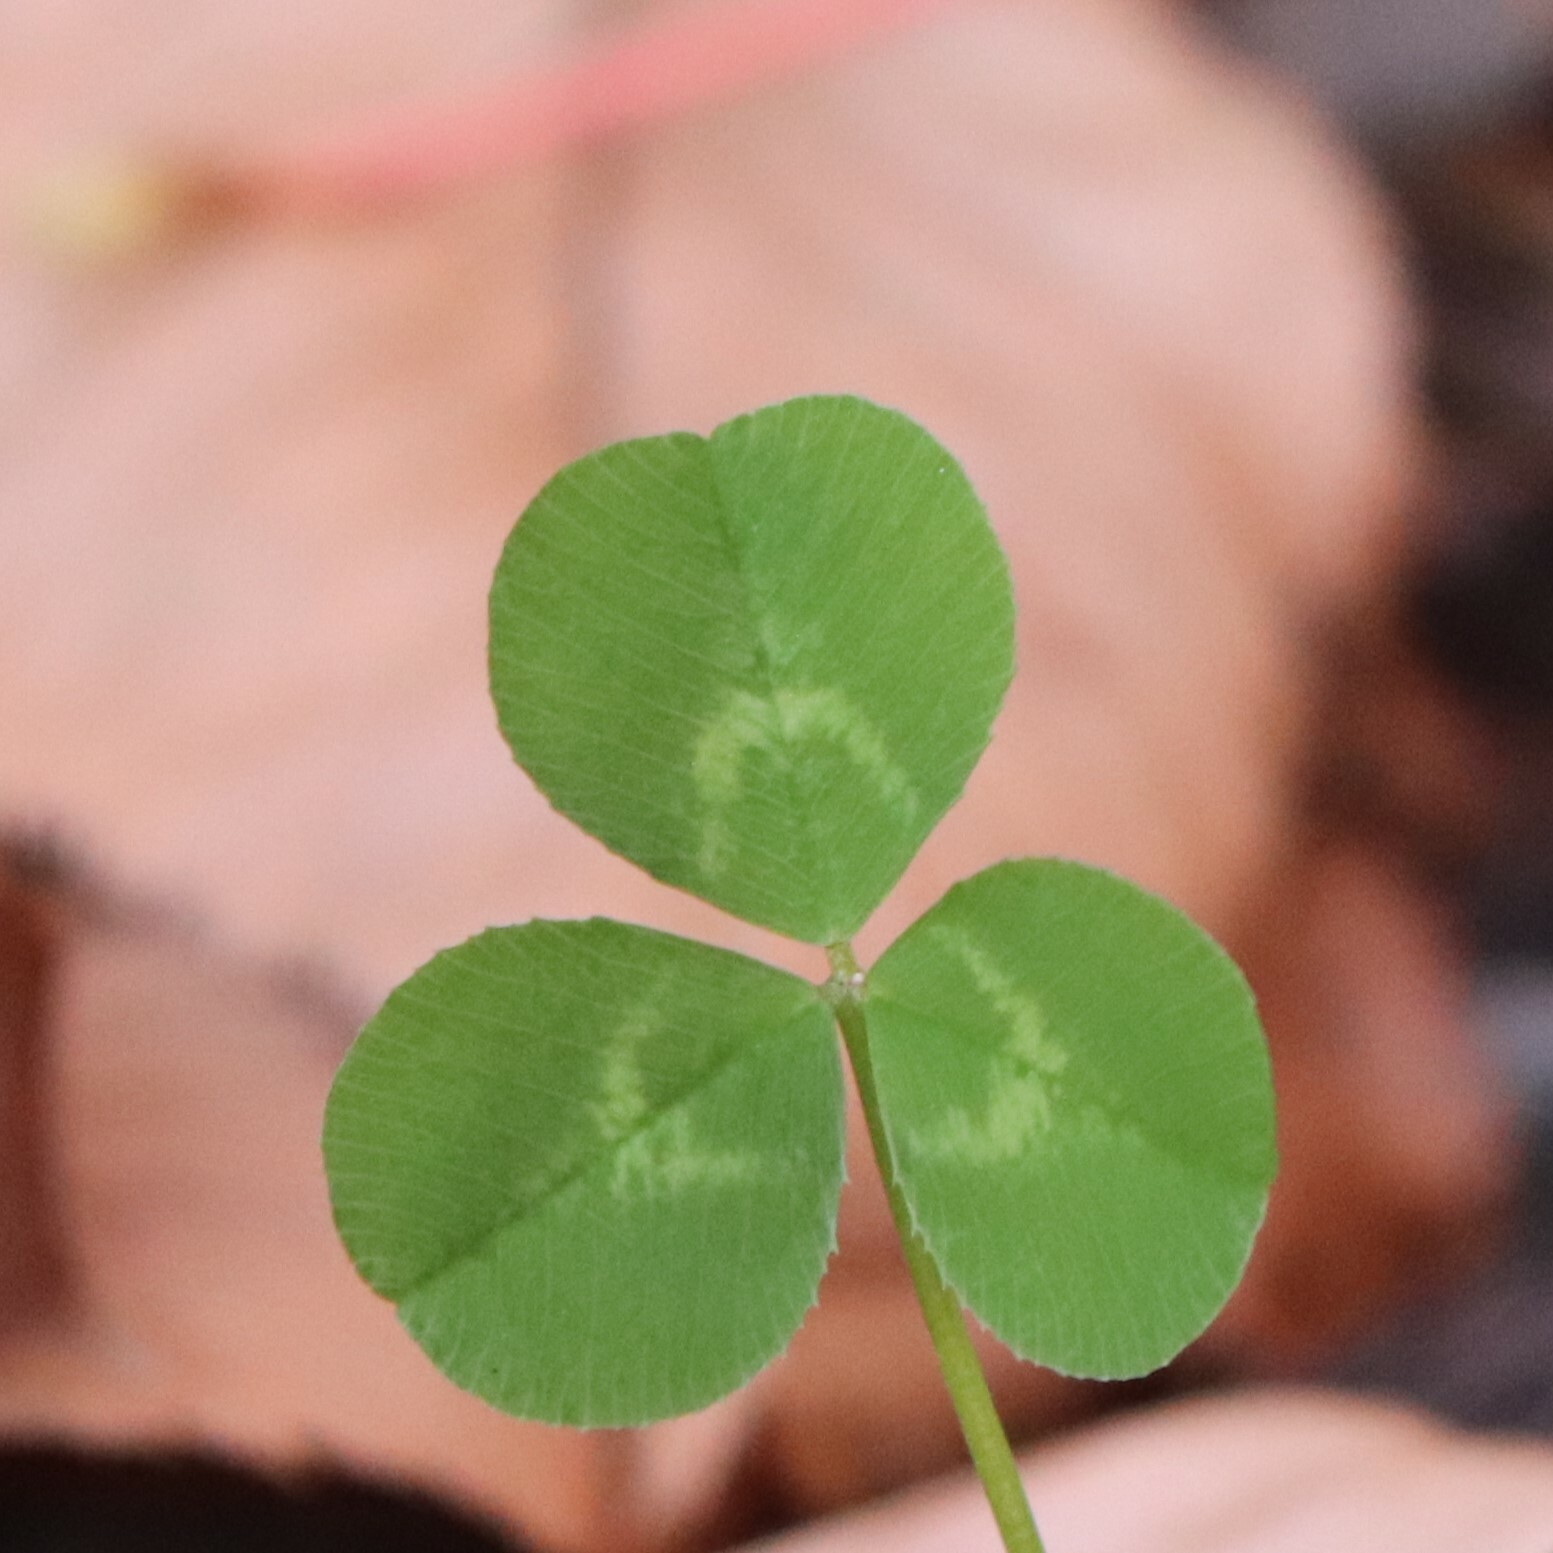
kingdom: Plantae
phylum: Tracheophyta
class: Magnoliopsida
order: Fabales
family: Fabaceae
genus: Trifolium
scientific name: Trifolium repens
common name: White clover
